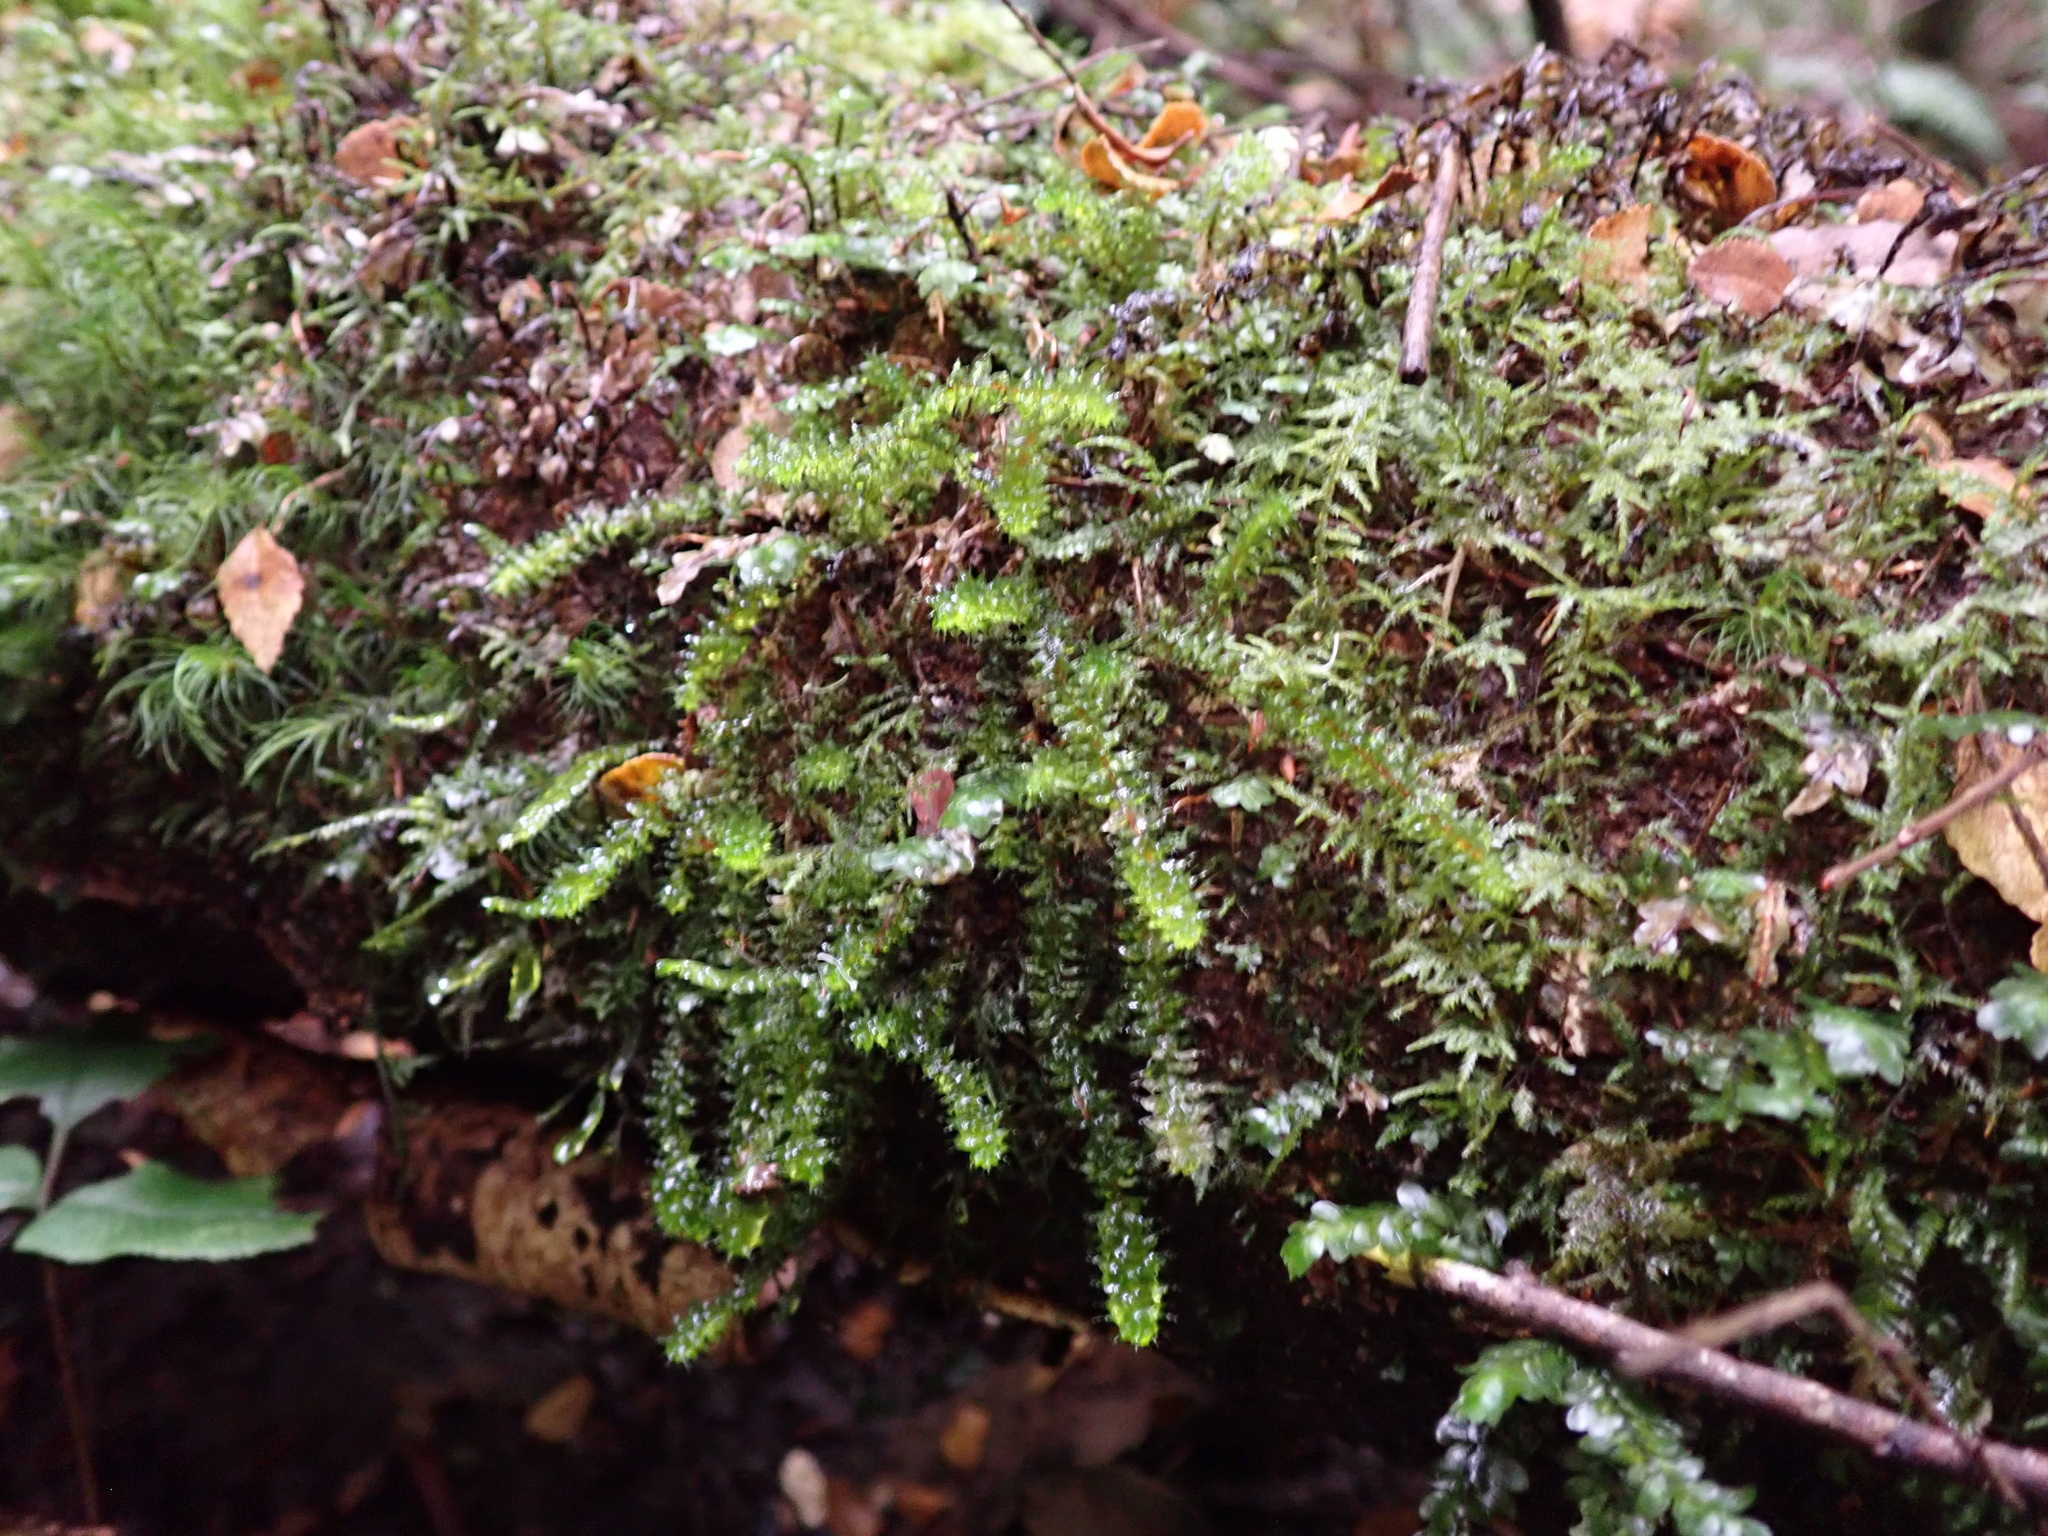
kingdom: Plantae
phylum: Bryophyta
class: Bryopsida
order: Ptychomniales
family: Ptychomniaceae
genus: Ptychomnion
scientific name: Ptychomnion aciculare
